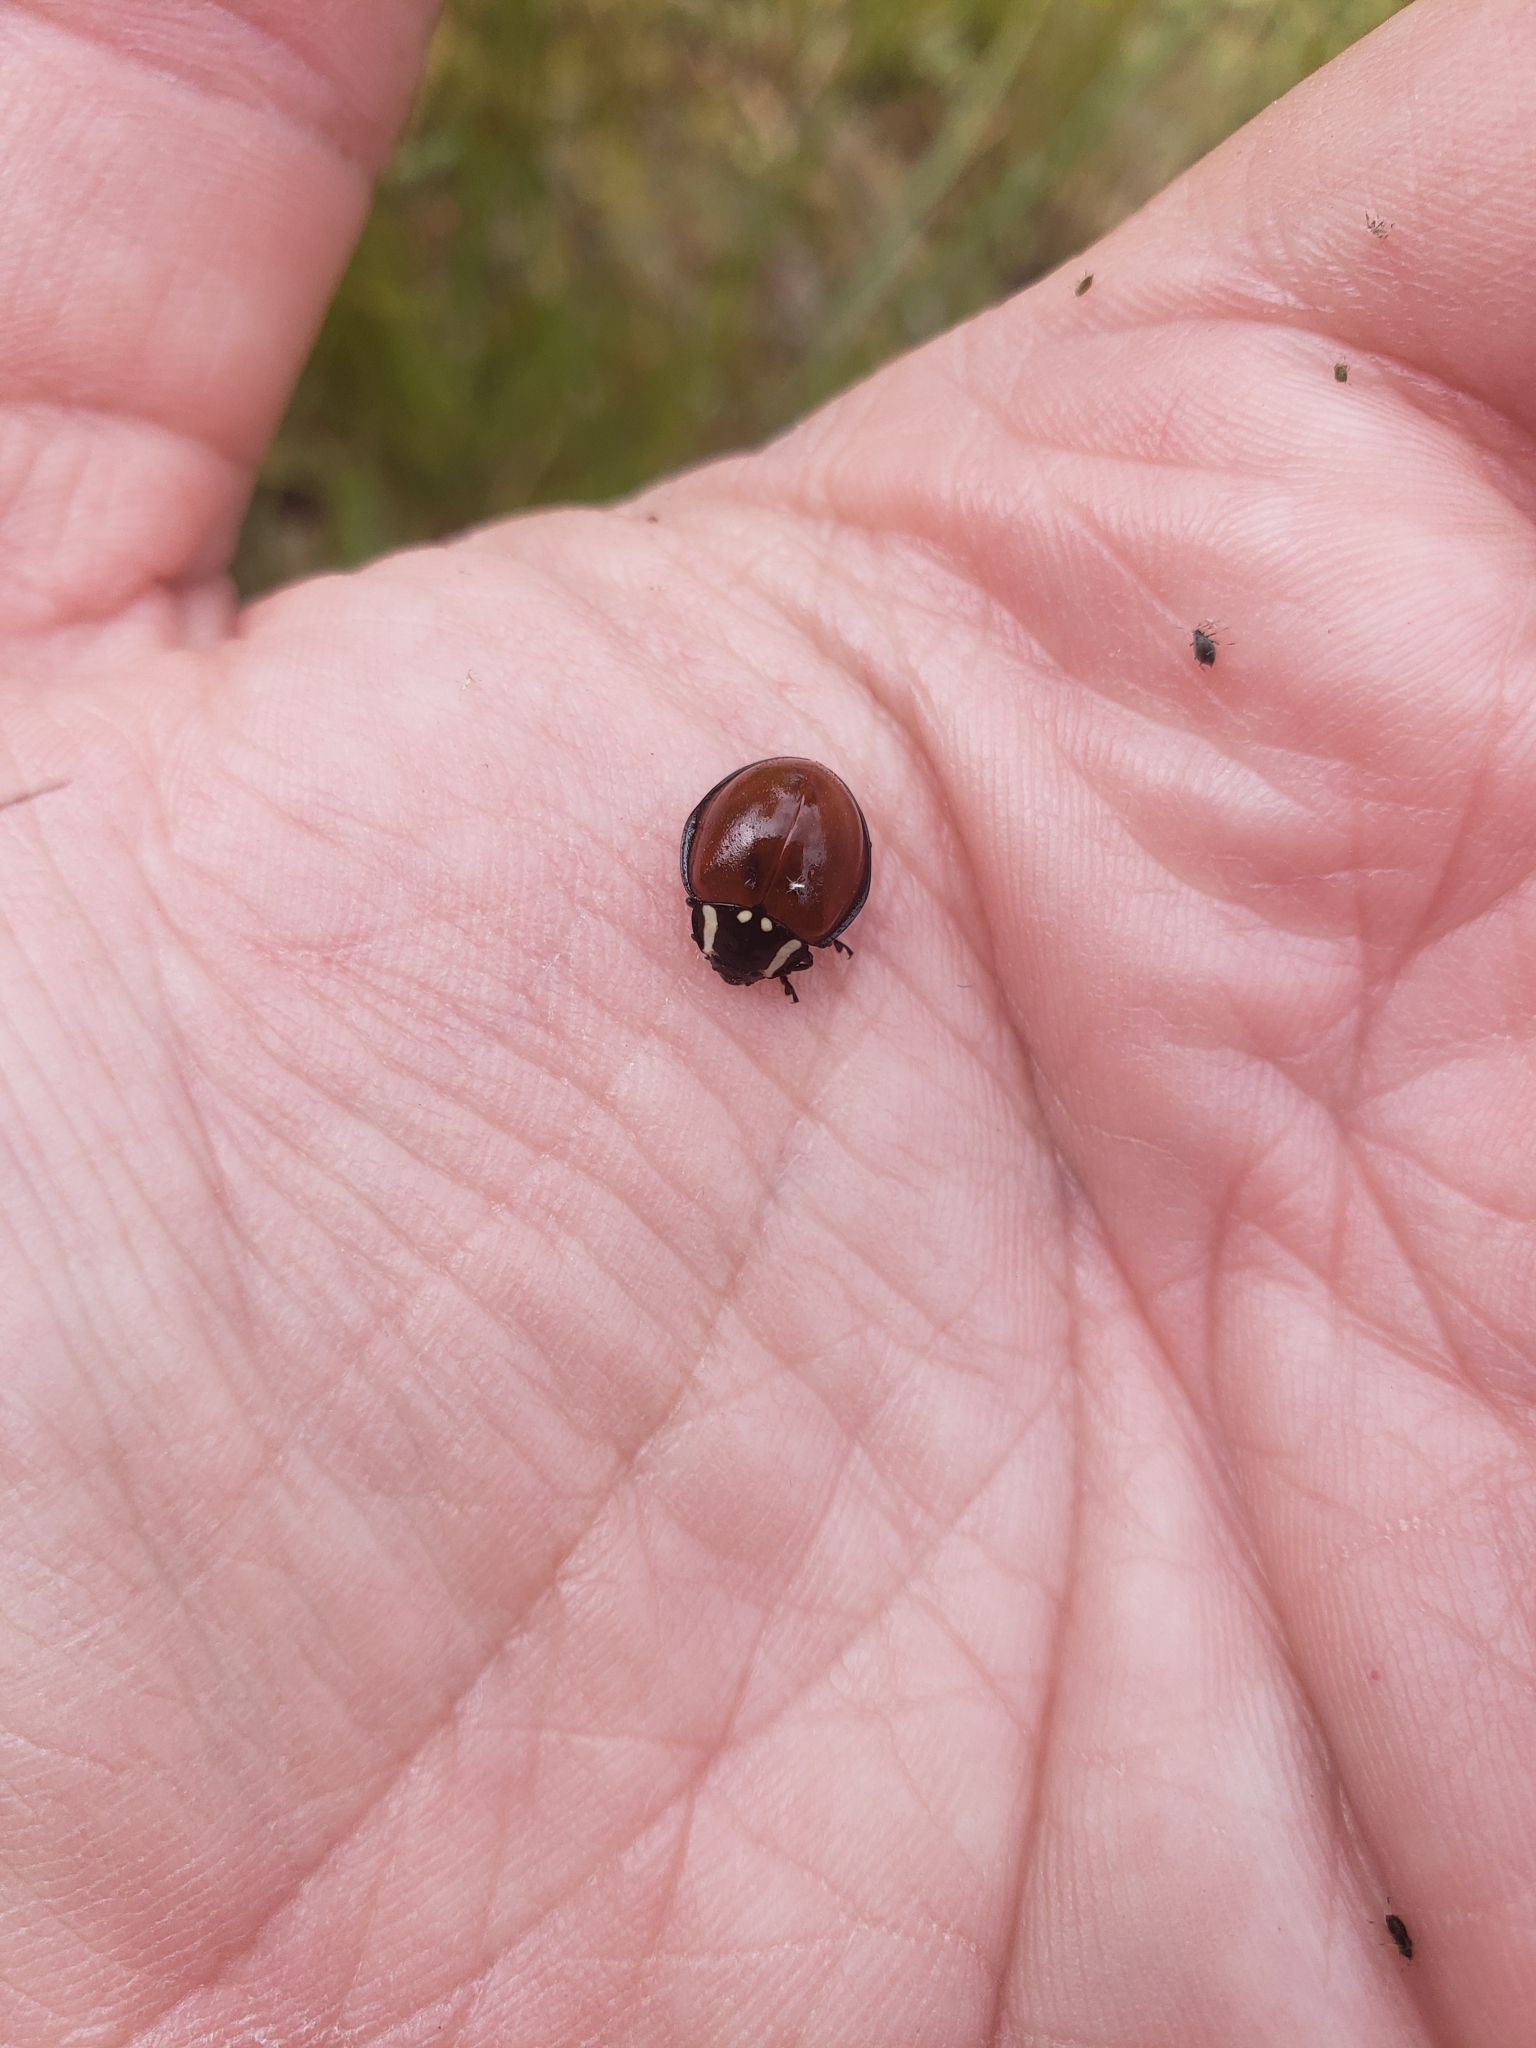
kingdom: Animalia
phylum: Arthropoda
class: Insecta
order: Coleoptera
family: Coccinellidae
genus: Anatis
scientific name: Anatis lecontei
